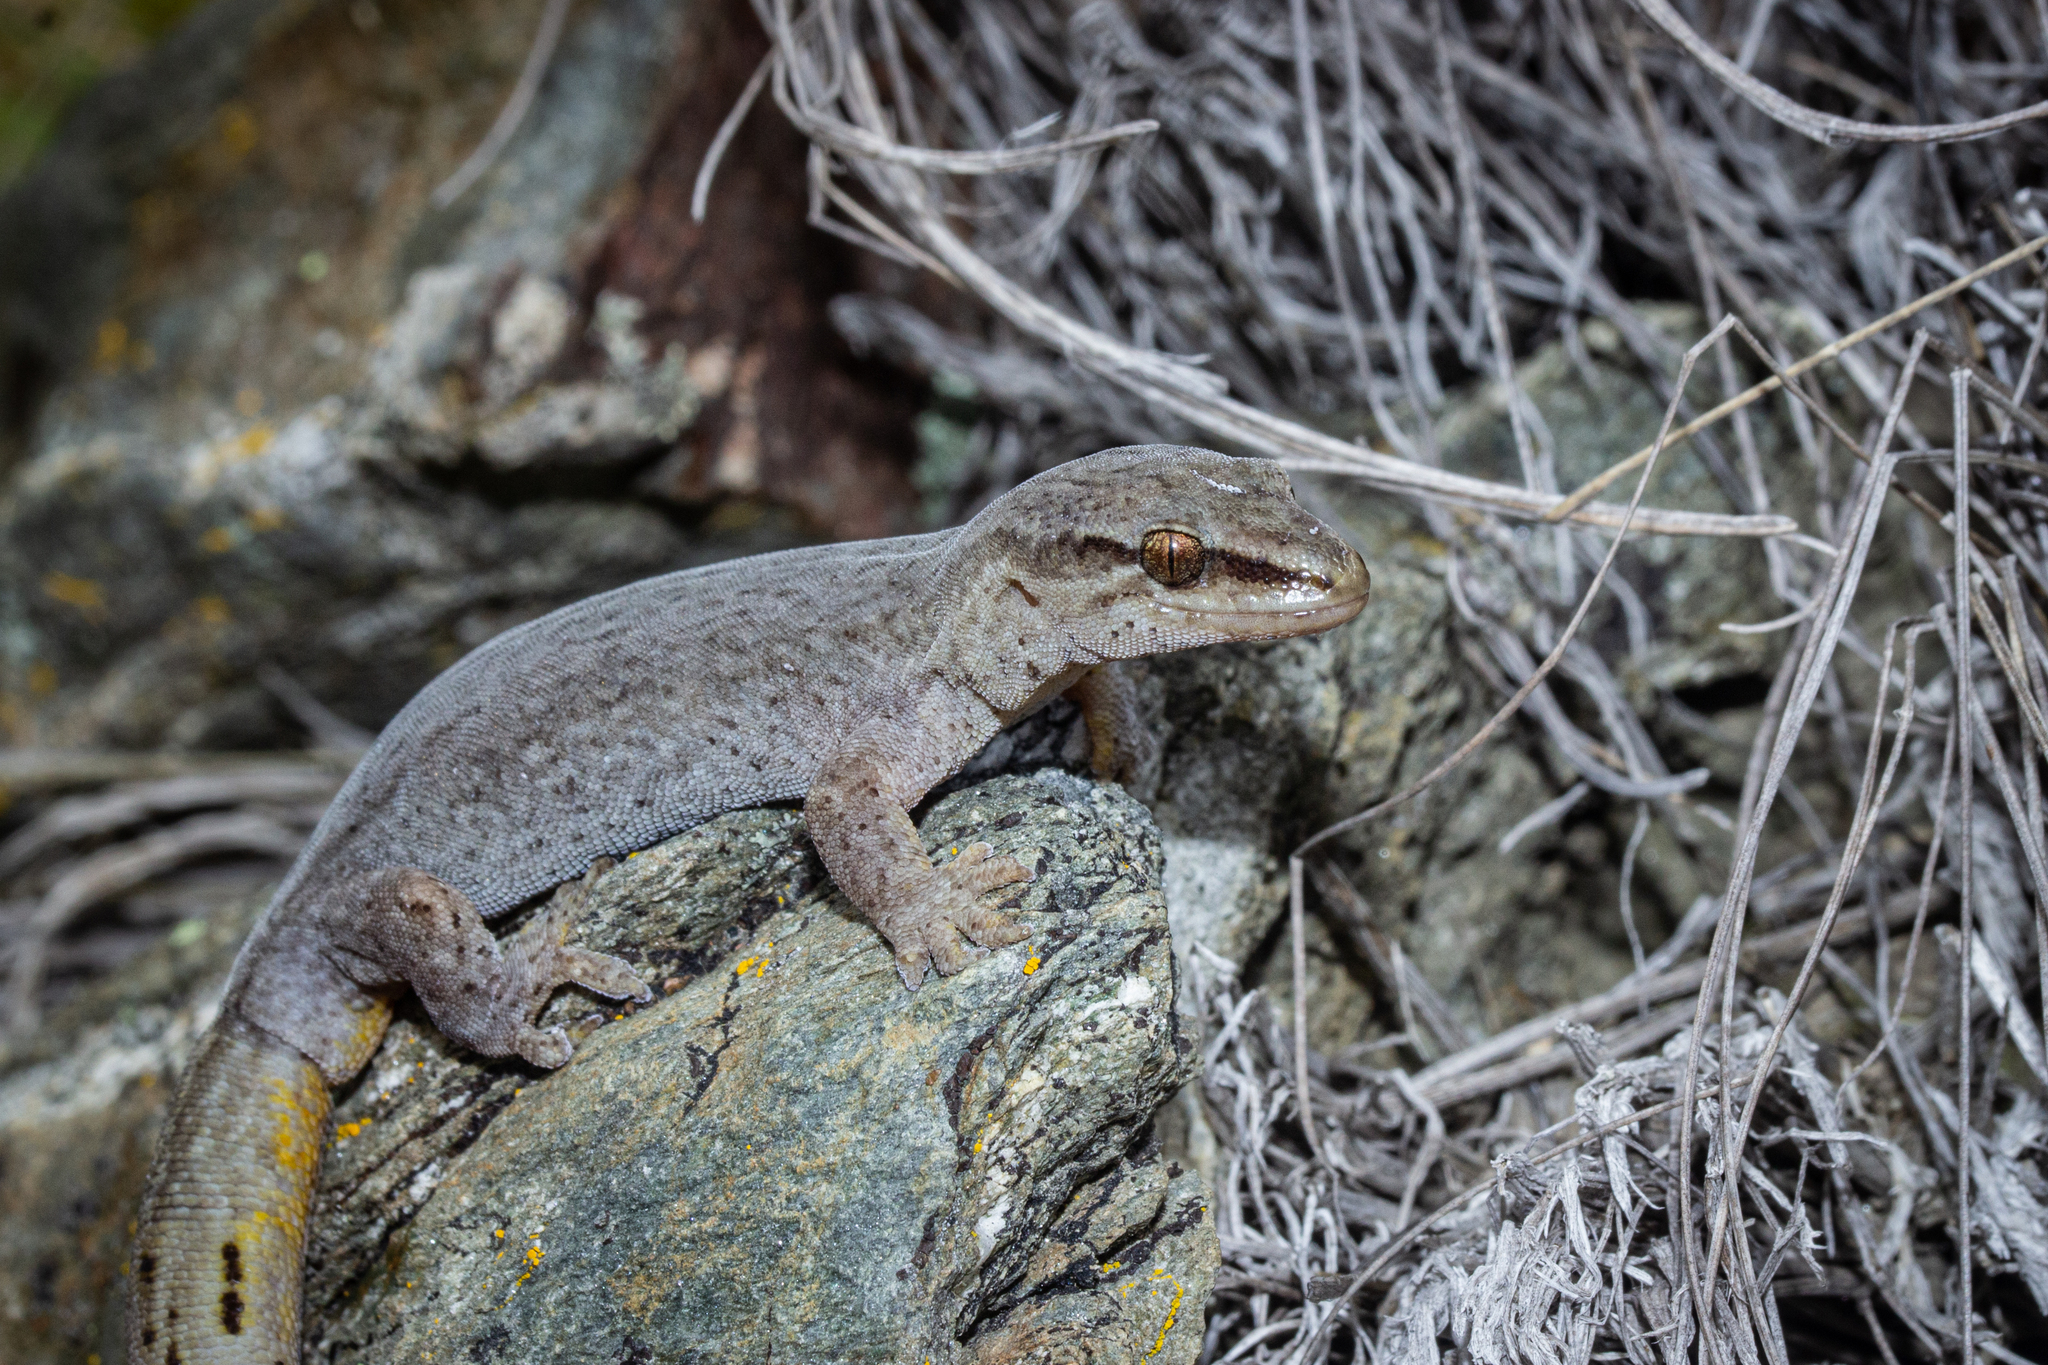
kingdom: Animalia
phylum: Chordata
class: Squamata
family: Diplodactylidae
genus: Woodworthia
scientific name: Woodworthia
